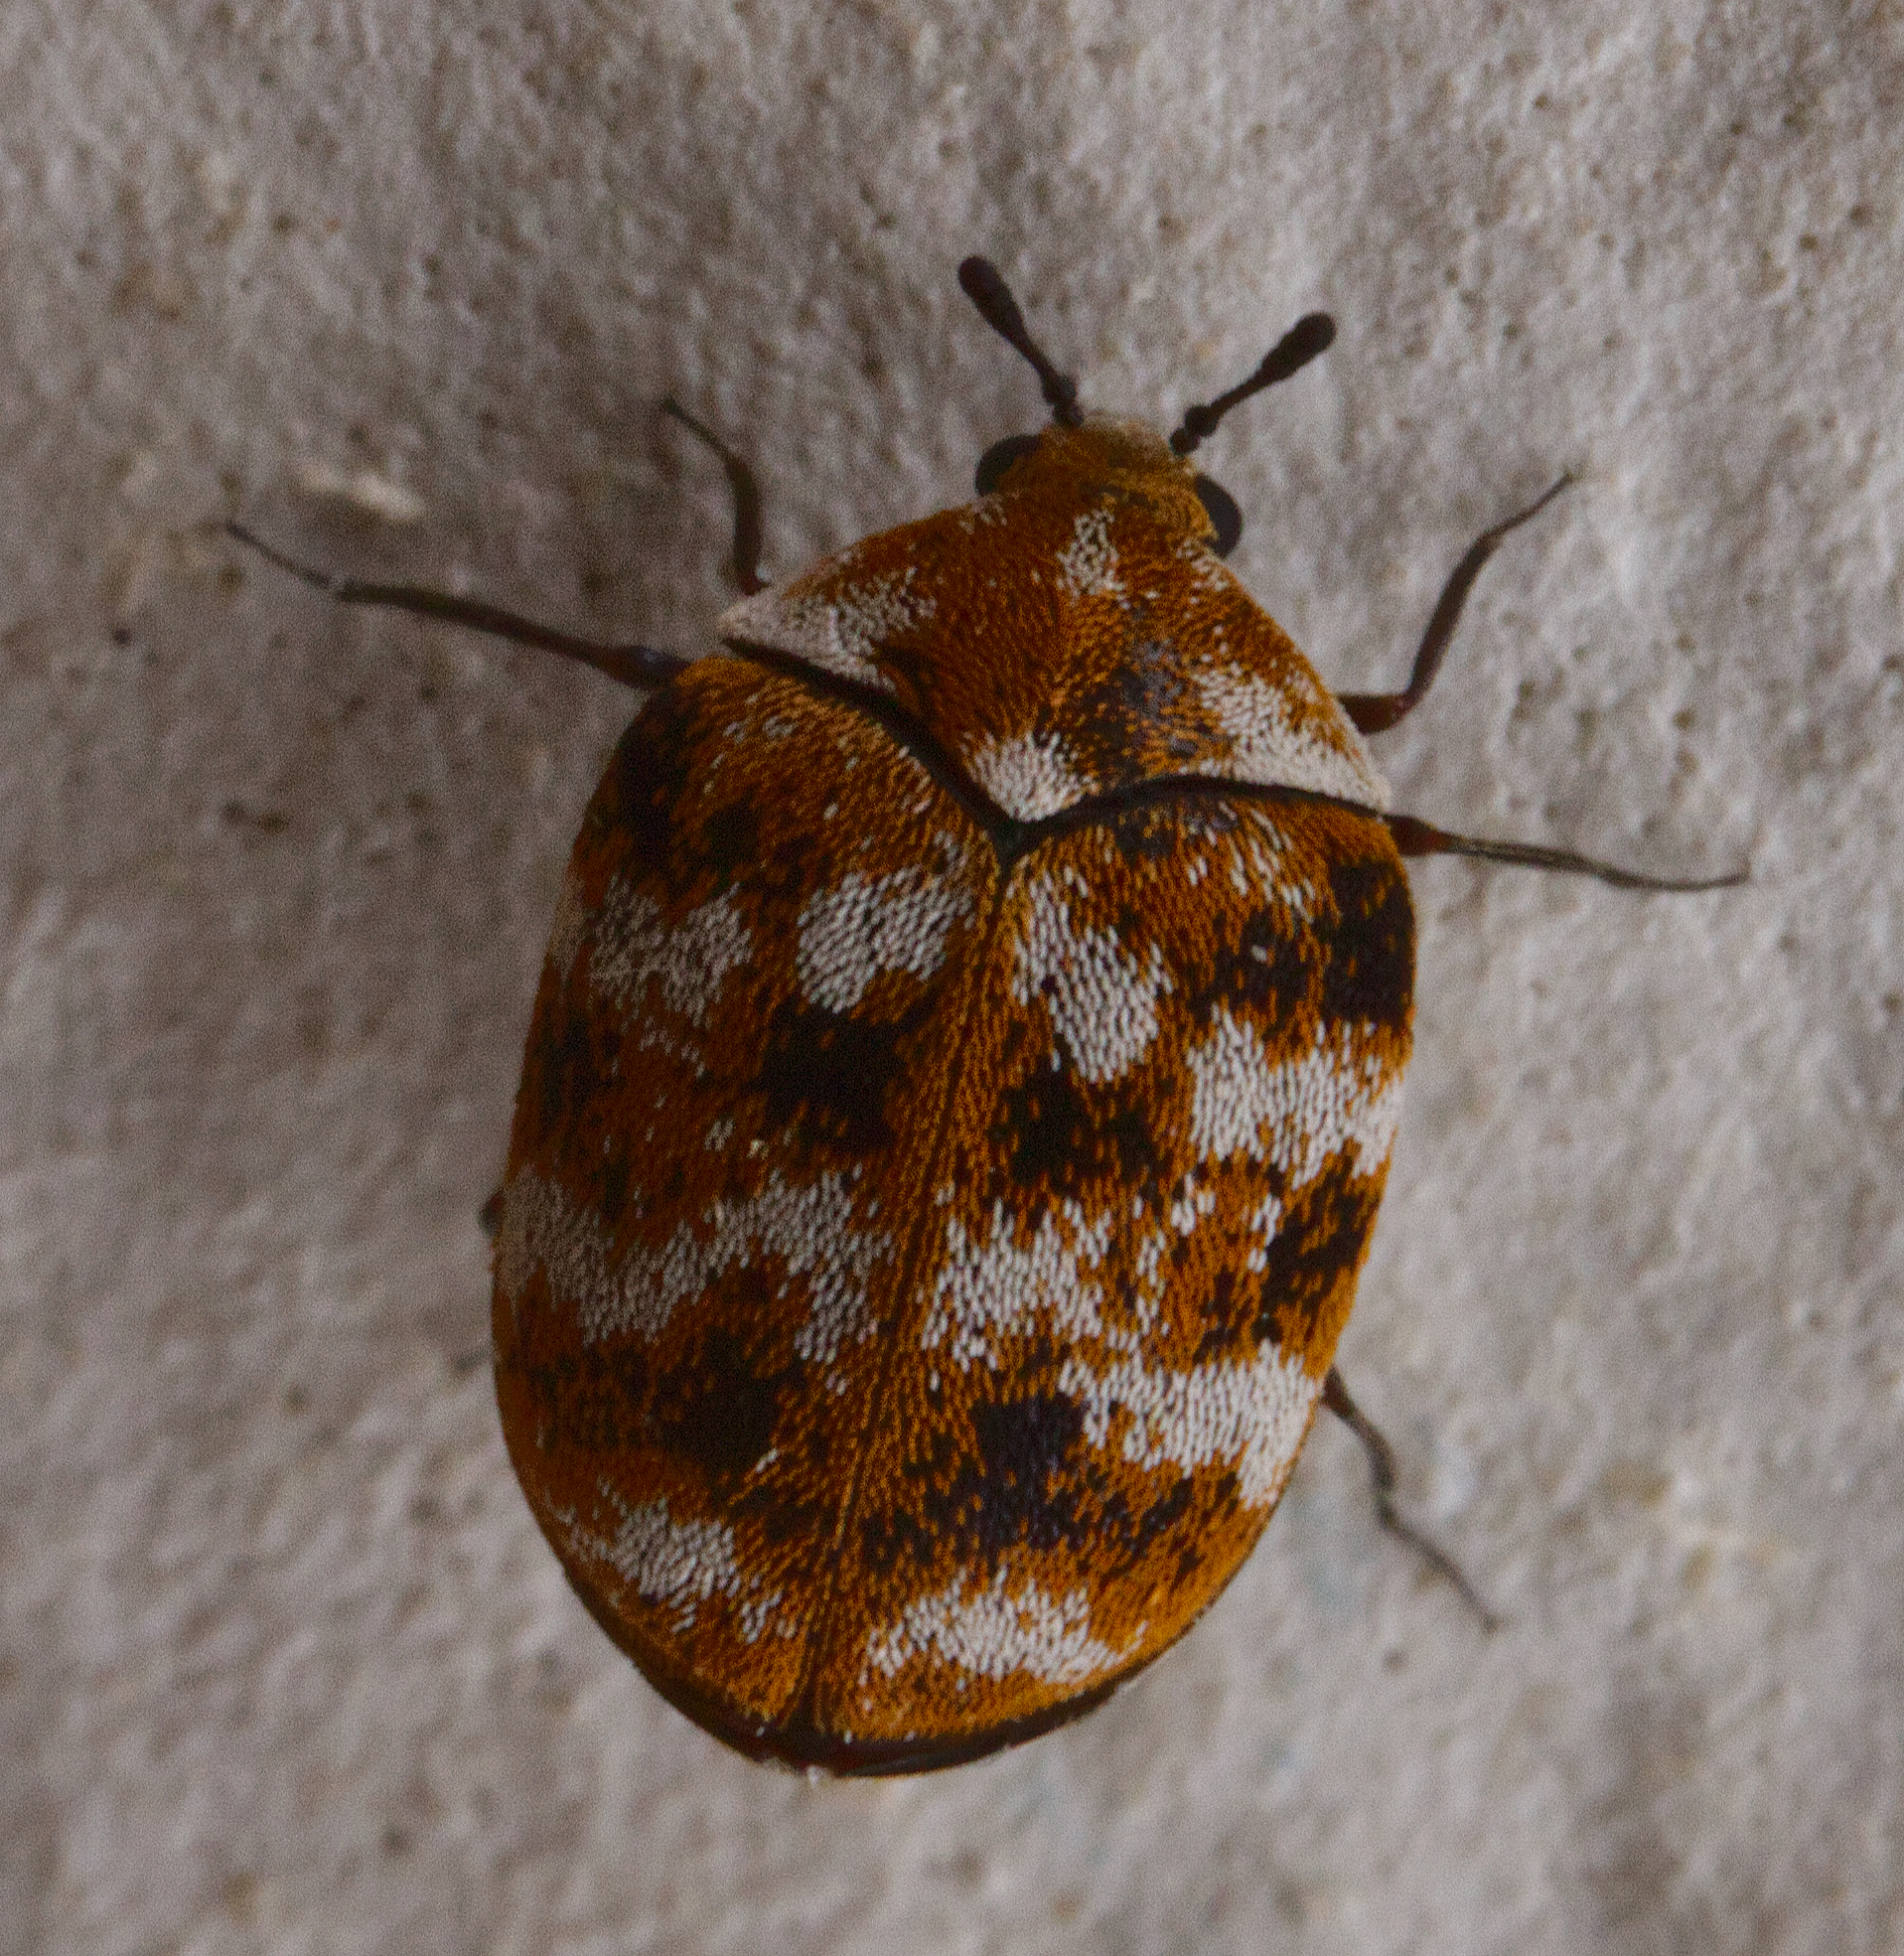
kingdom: Animalia
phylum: Arthropoda
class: Insecta
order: Coleoptera
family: Dermestidae
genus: Anthrenus
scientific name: Anthrenus verbasci
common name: Varied carpet beetle
